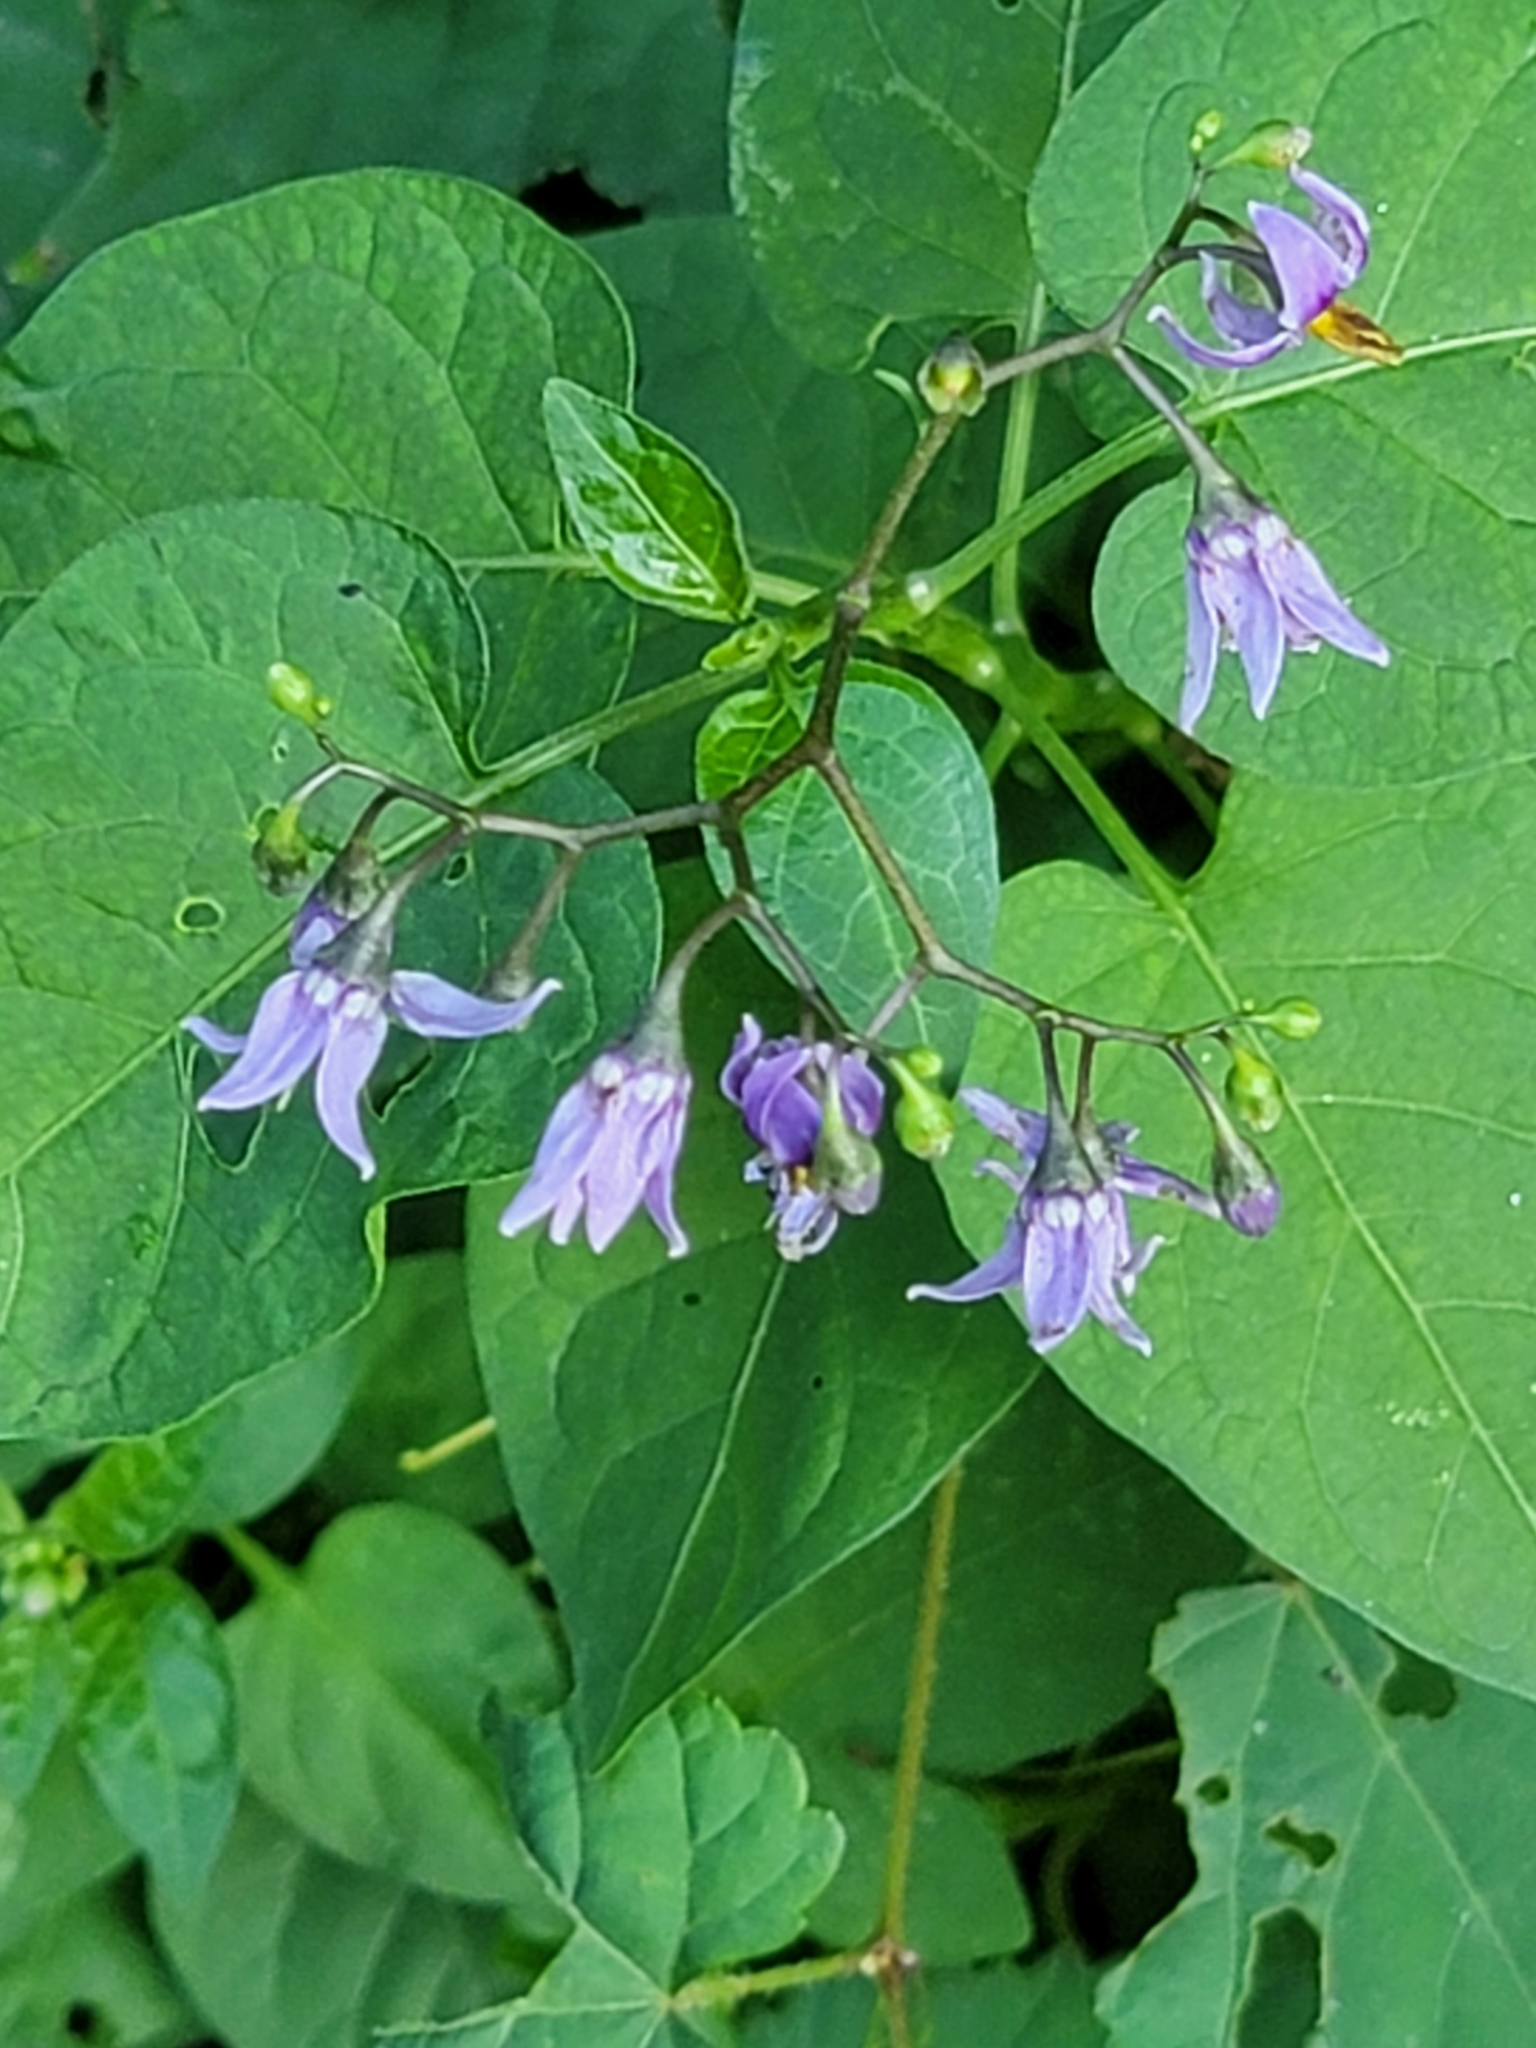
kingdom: Plantae
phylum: Tracheophyta
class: Magnoliopsida
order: Solanales
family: Solanaceae
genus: Solanum
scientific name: Solanum dulcamara
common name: Climbing nightshade
